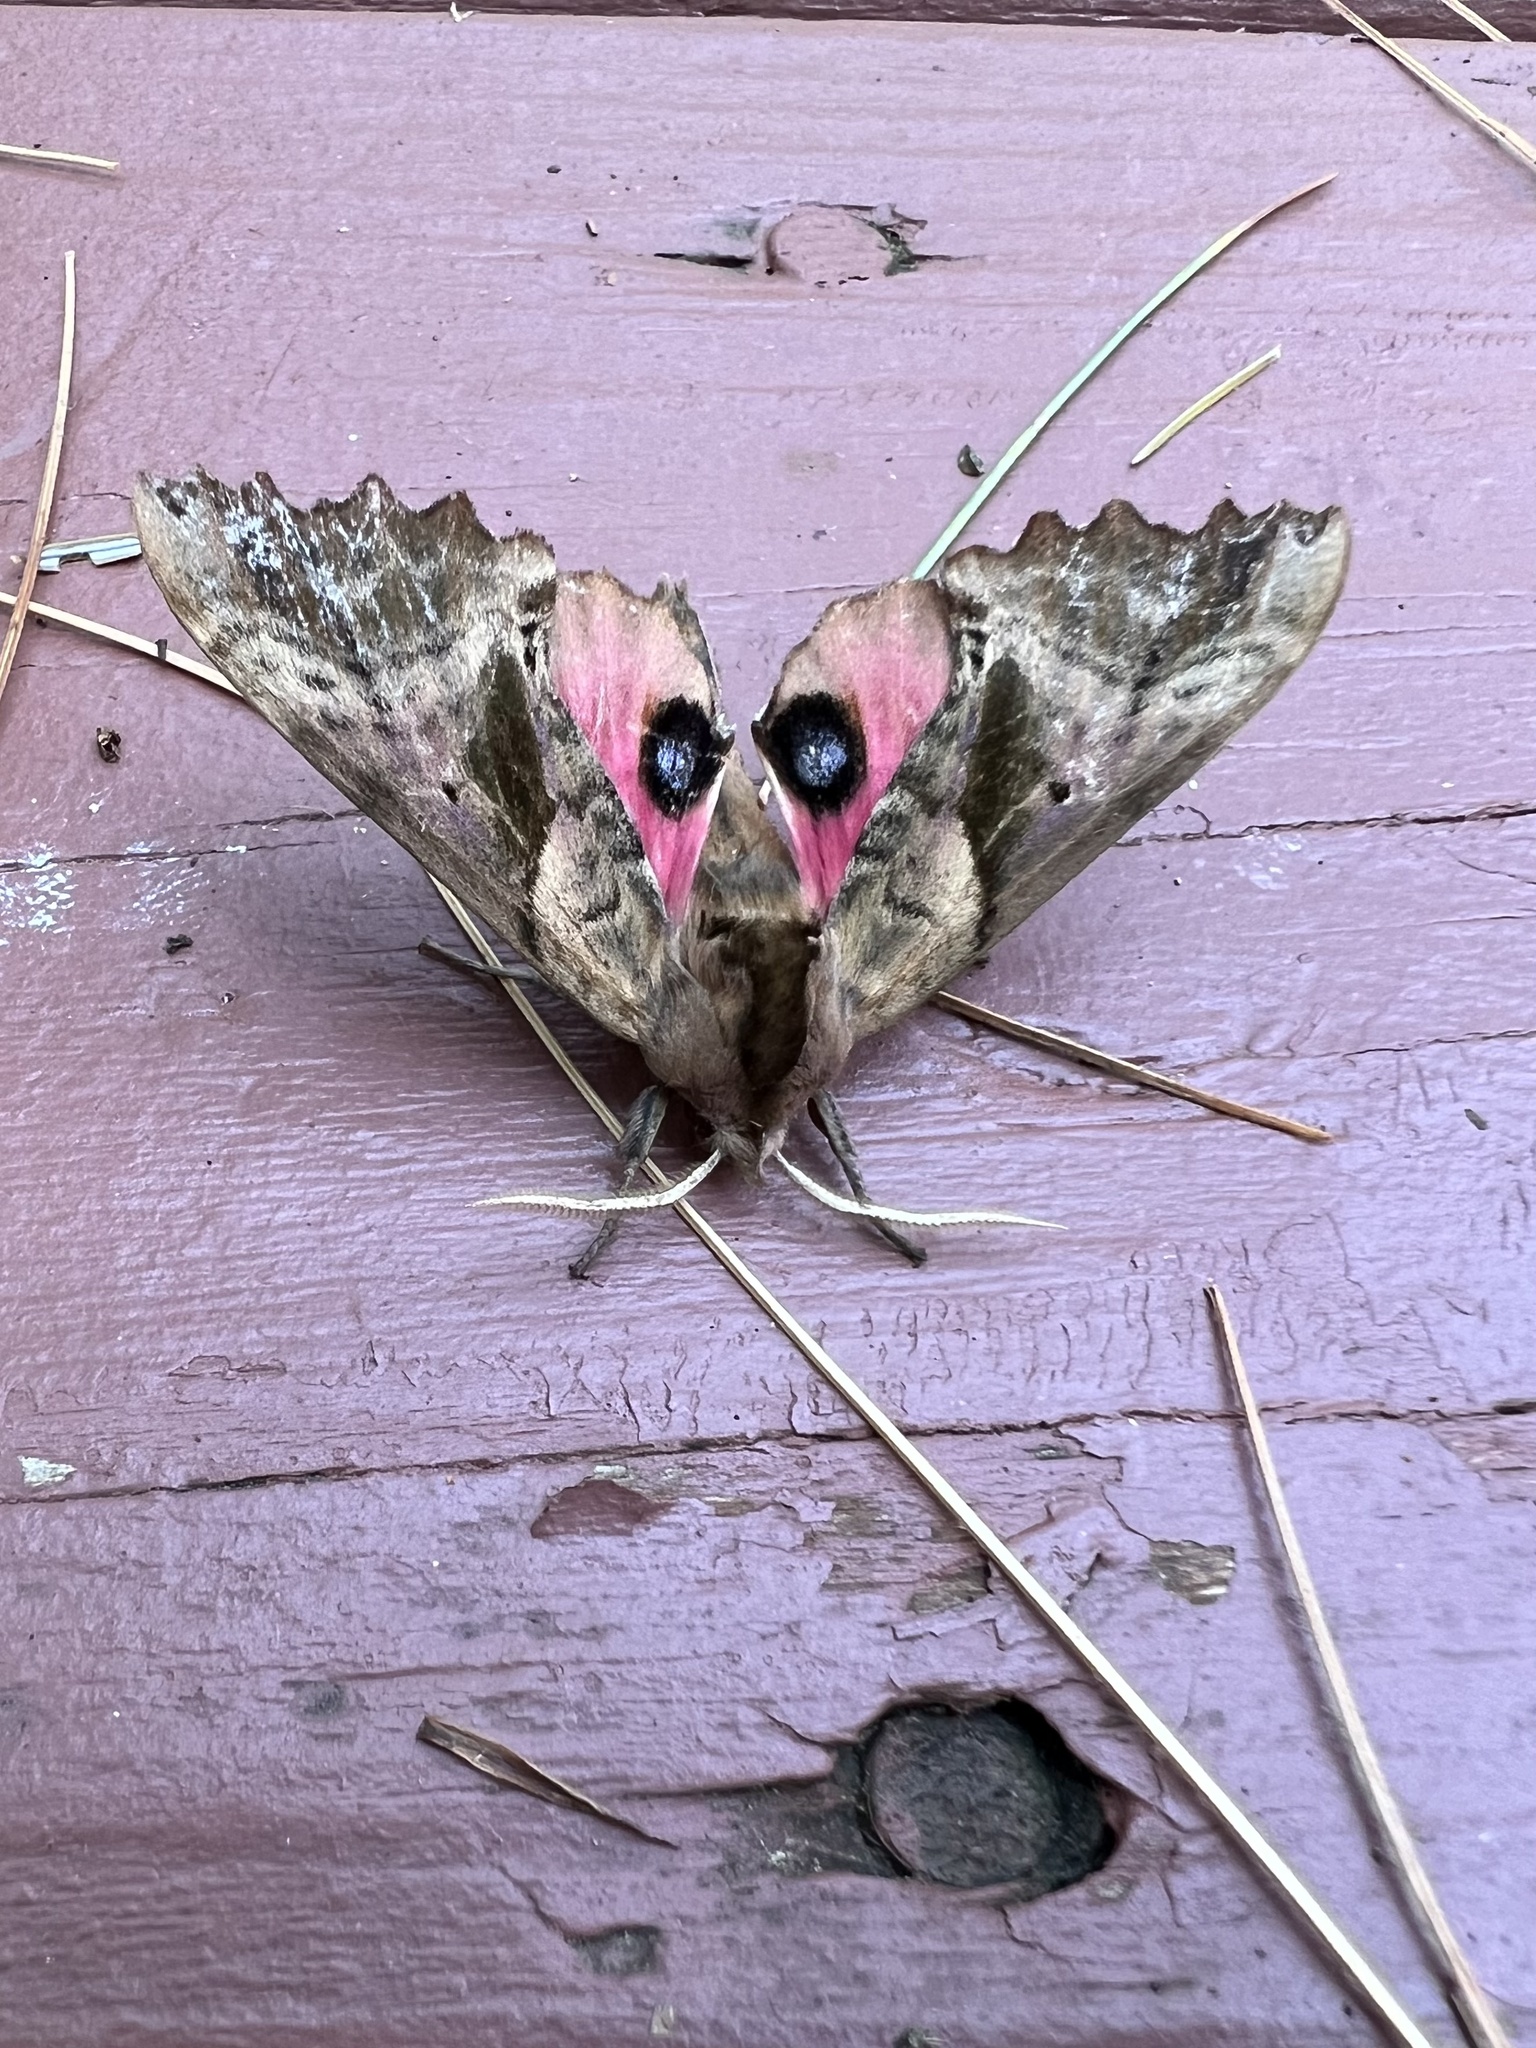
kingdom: Animalia
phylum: Arthropoda
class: Insecta
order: Lepidoptera
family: Sphingidae
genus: Paonias
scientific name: Paonias excaecata
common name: Blind-eyed sphinx
